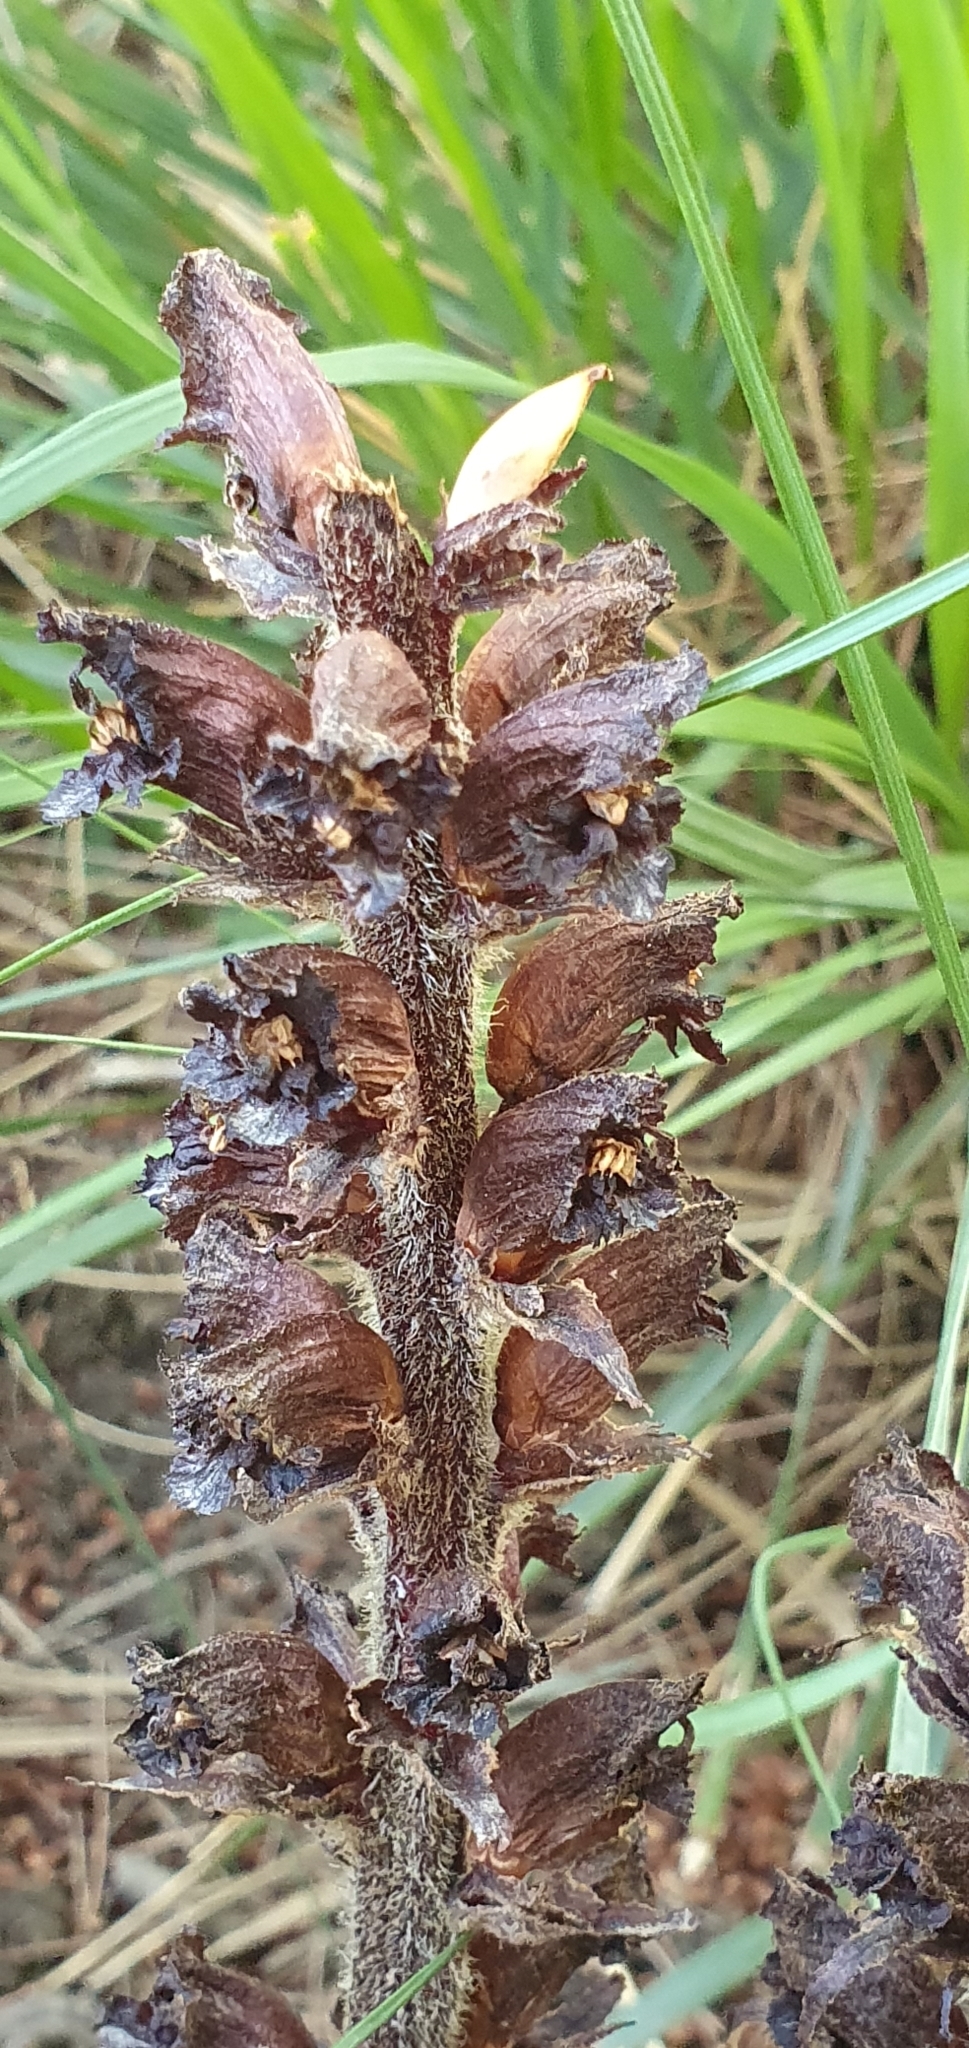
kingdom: Plantae
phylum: Tracheophyta
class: Magnoliopsida
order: Lamiales
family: Orobanchaceae
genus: Orobanche
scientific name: Orobanche variegata
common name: Variegated broomrape
